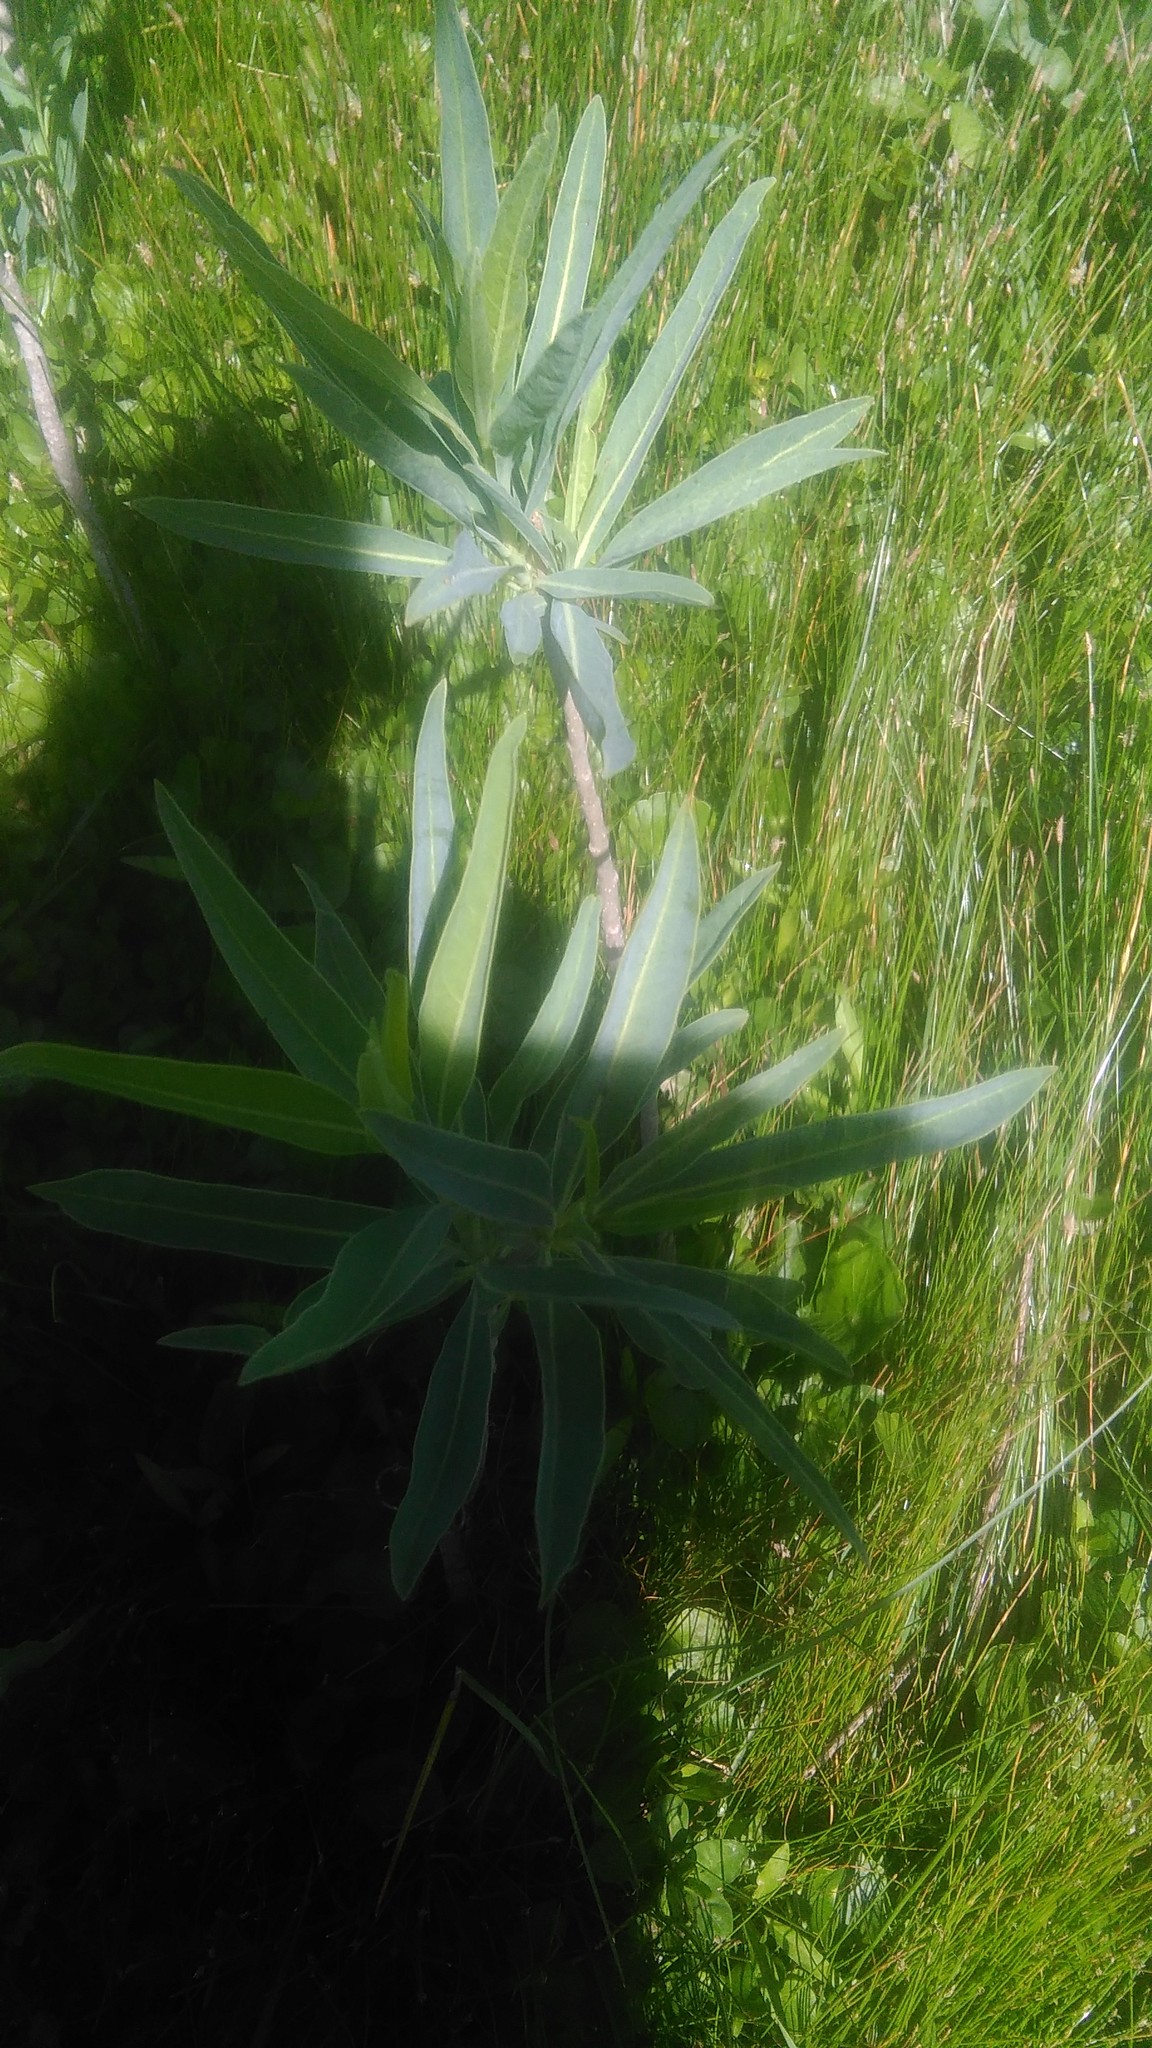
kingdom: Plantae
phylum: Tracheophyta
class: Magnoliopsida
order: Solanales
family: Solanaceae
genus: Solanum
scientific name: Solanum glaucophyllum
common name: Waxyleaf nightshade
